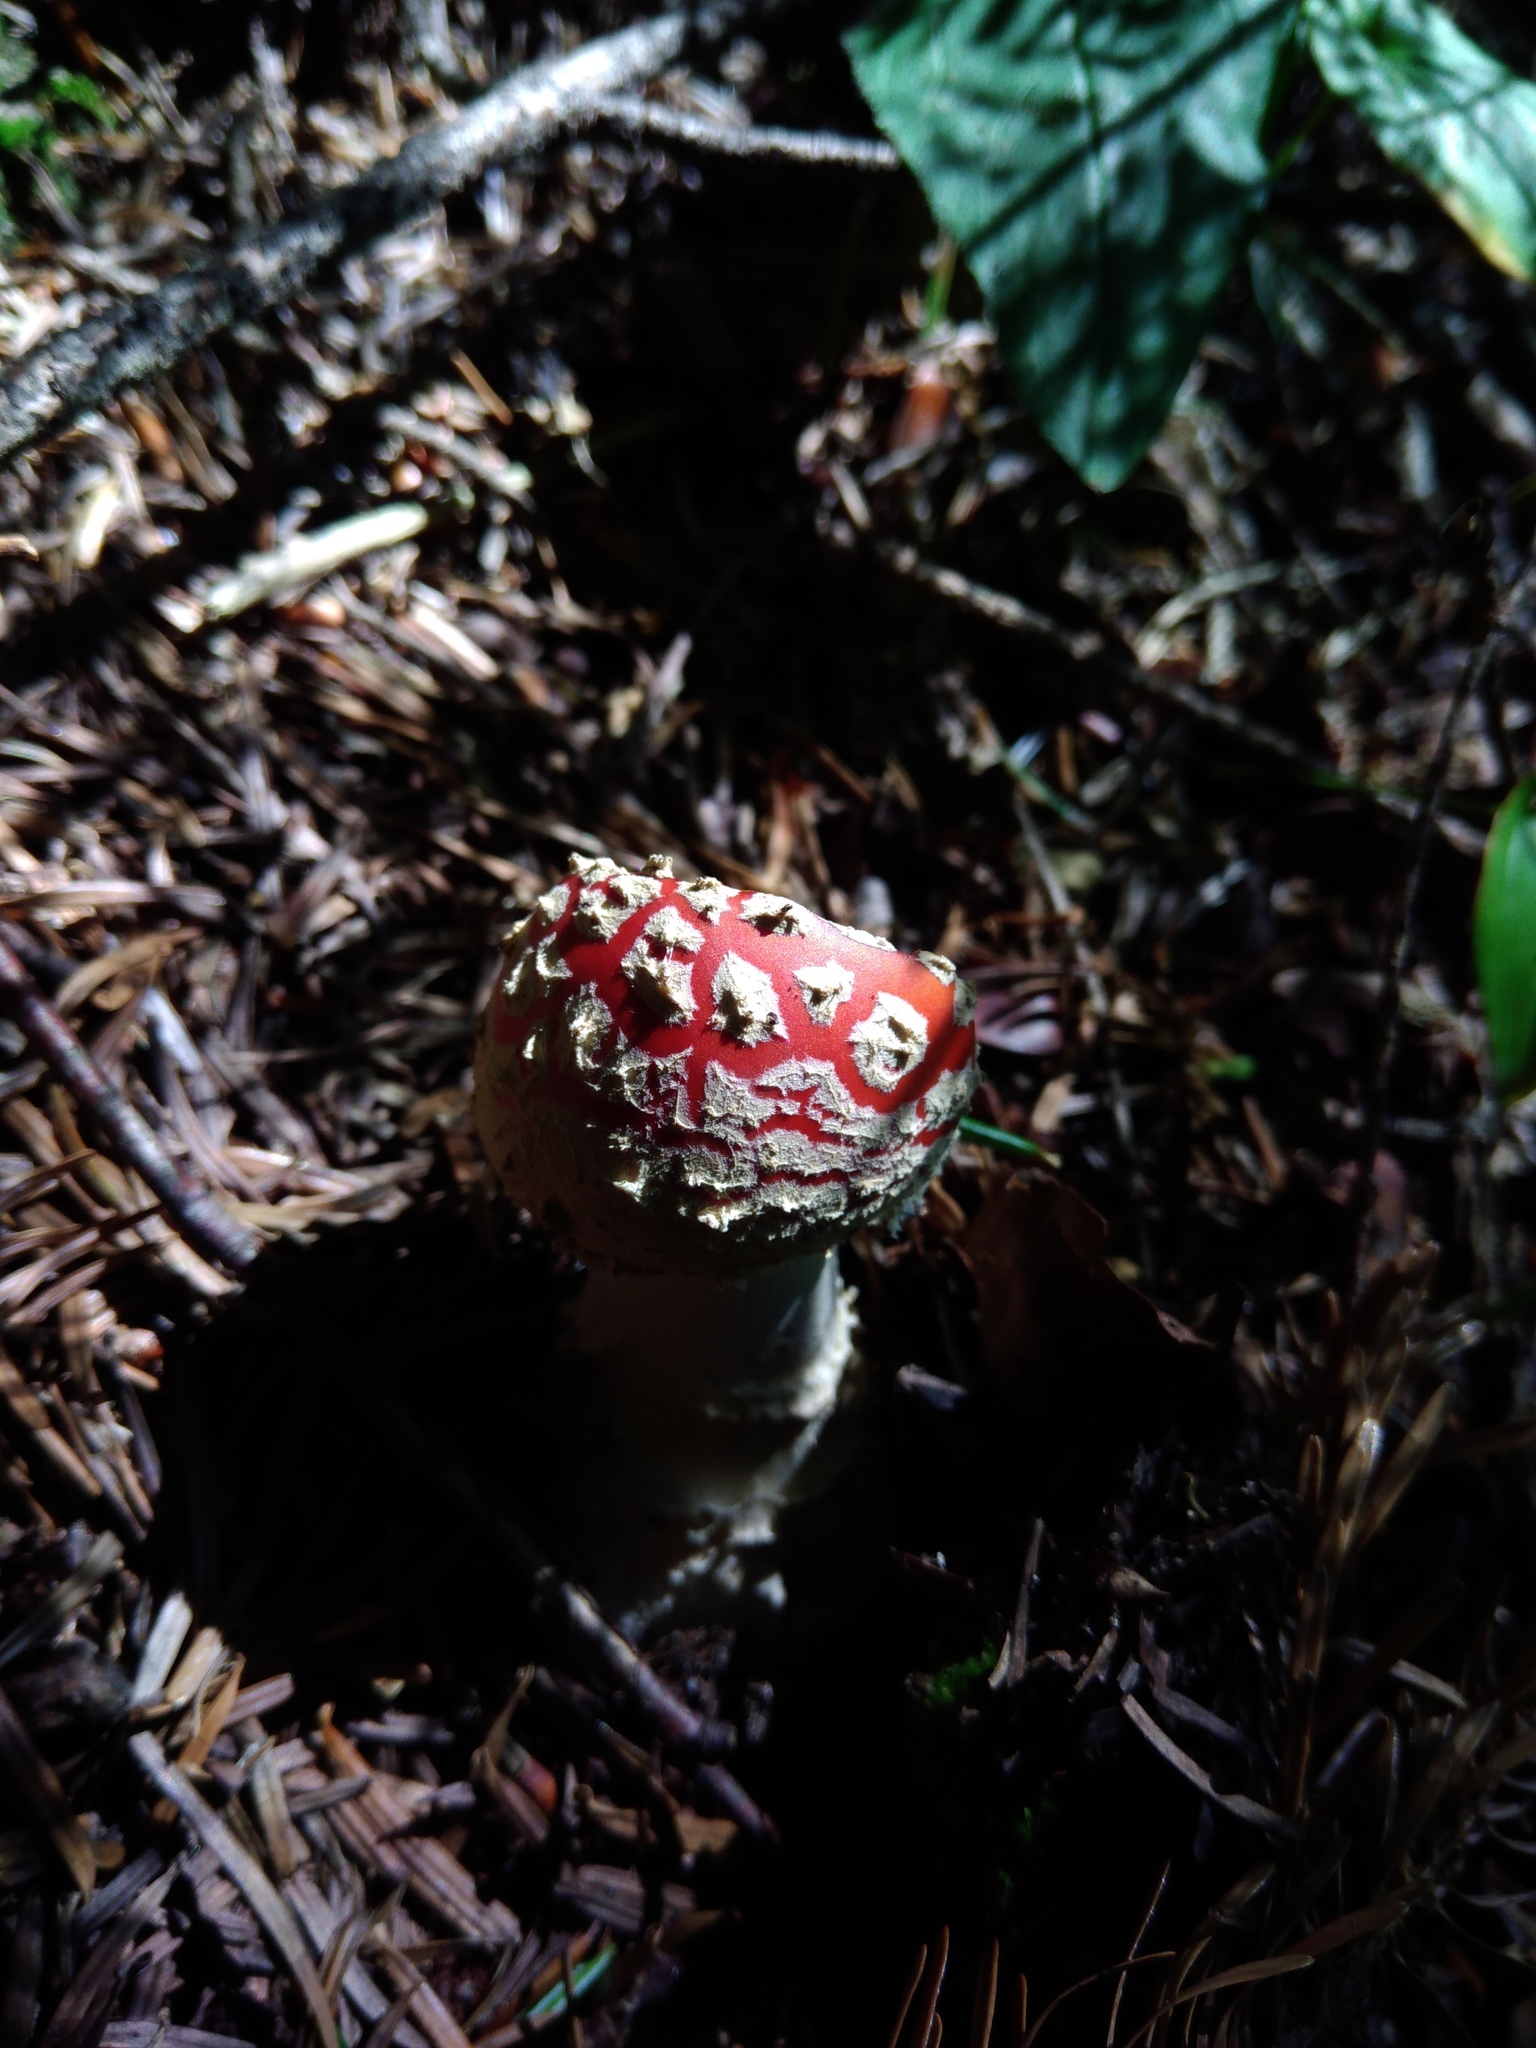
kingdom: Fungi
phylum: Basidiomycota
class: Agaricomycetes
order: Agaricales
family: Amanitaceae
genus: Amanita
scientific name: Amanita muscaria
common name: Fly agaric
